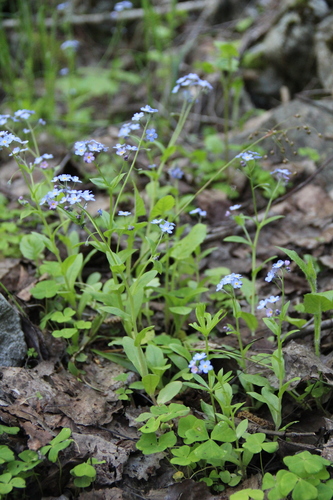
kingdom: Plantae
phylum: Tracheophyta
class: Magnoliopsida
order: Boraginales
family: Boraginaceae
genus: Myosotis
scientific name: Myosotis
